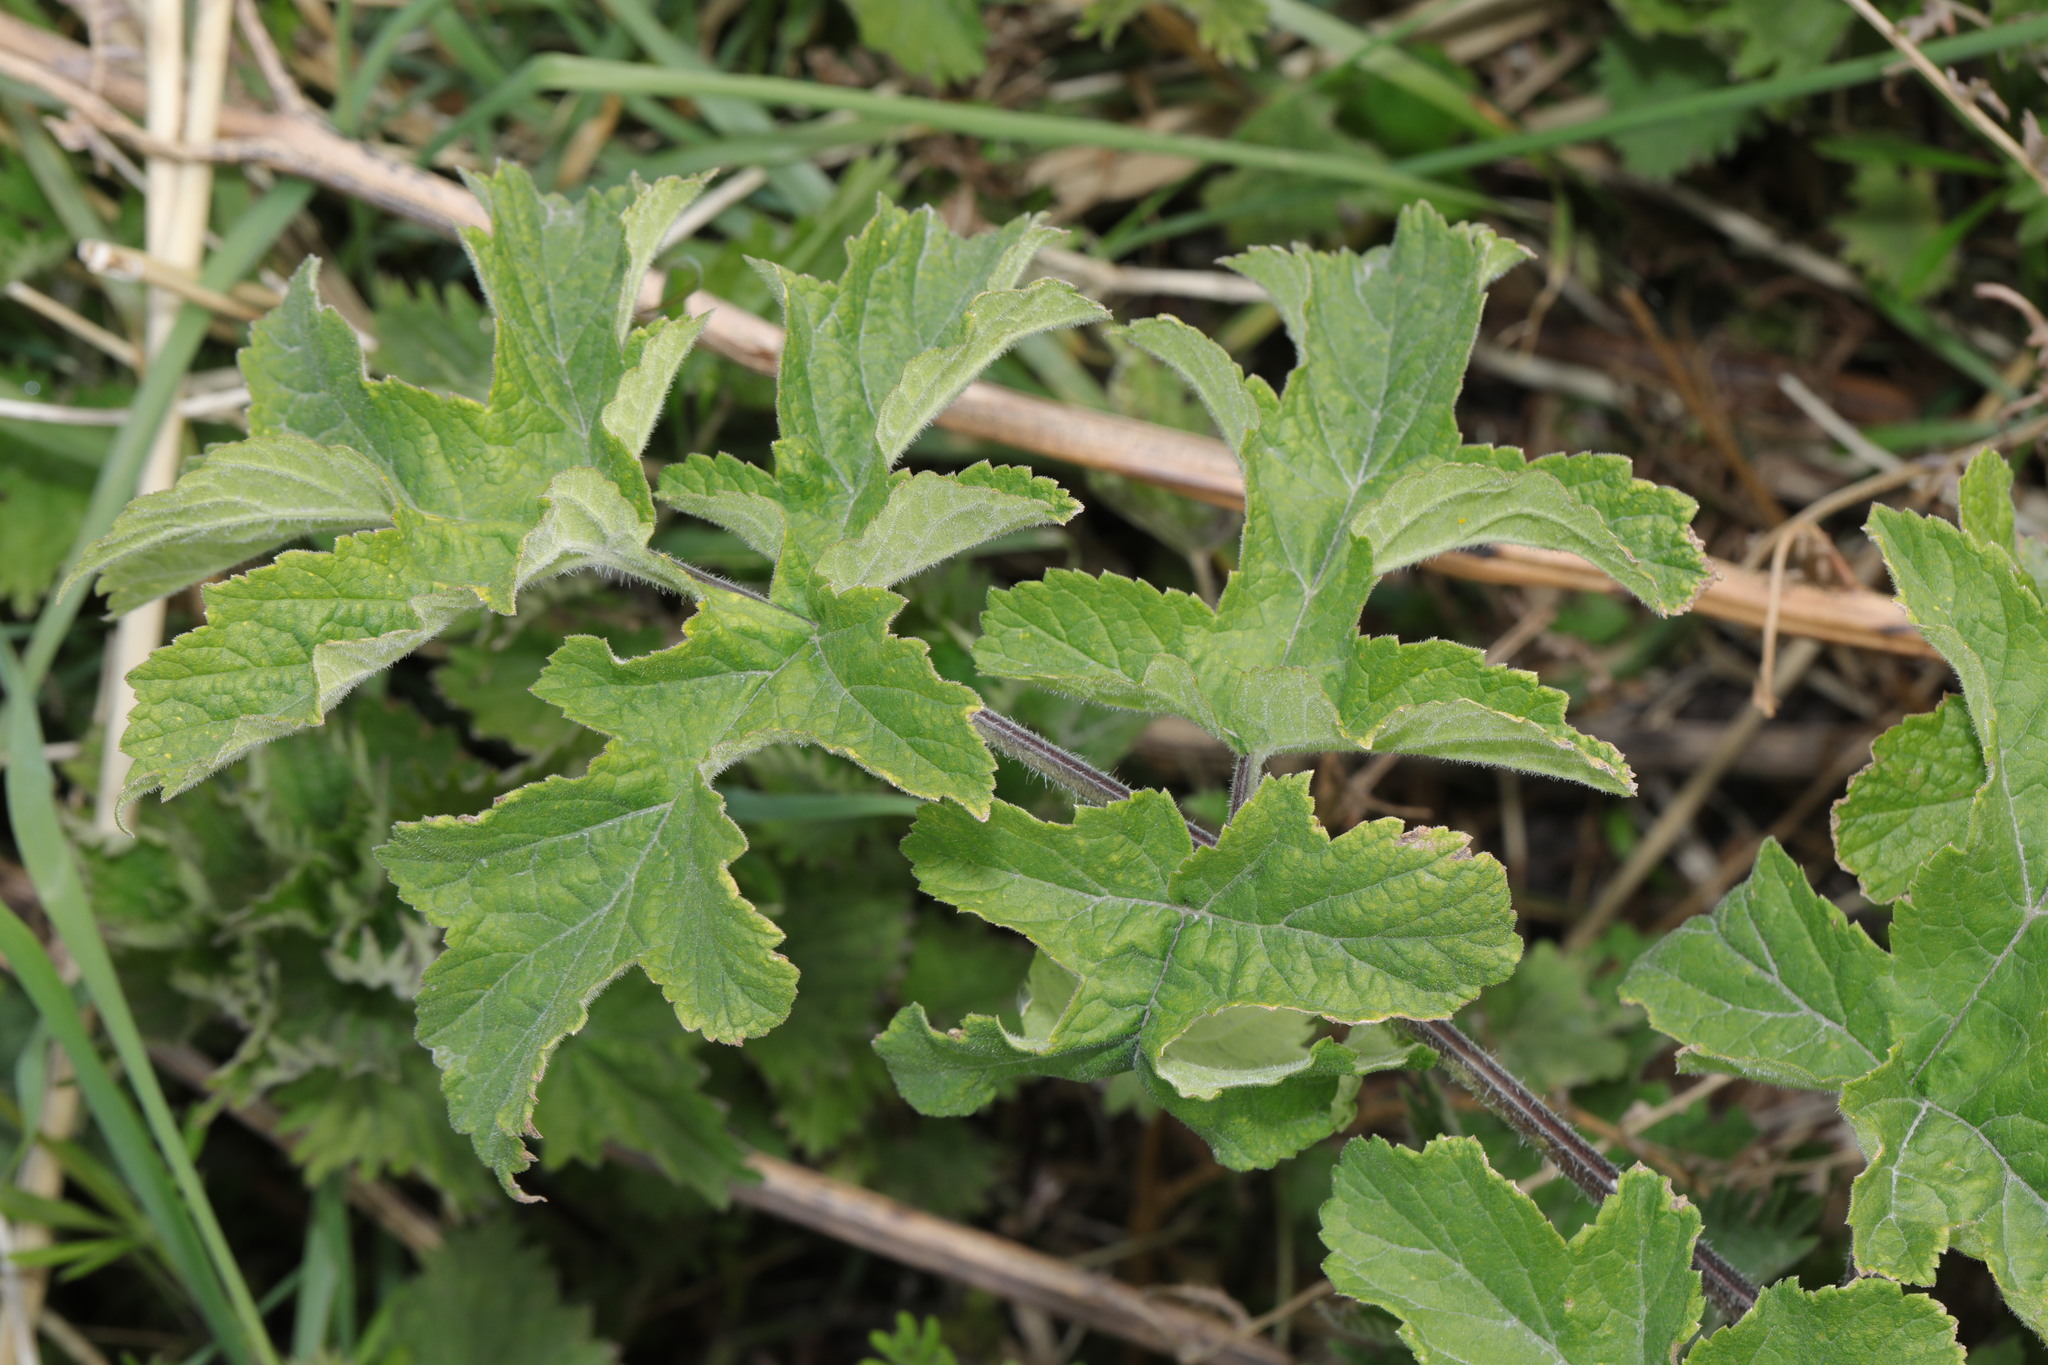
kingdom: Plantae
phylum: Tracheophyta
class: Magnoliopsida
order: Apiales
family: Apiaceae
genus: Heracleum
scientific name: Heracleum sphondylium
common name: Hogweed
